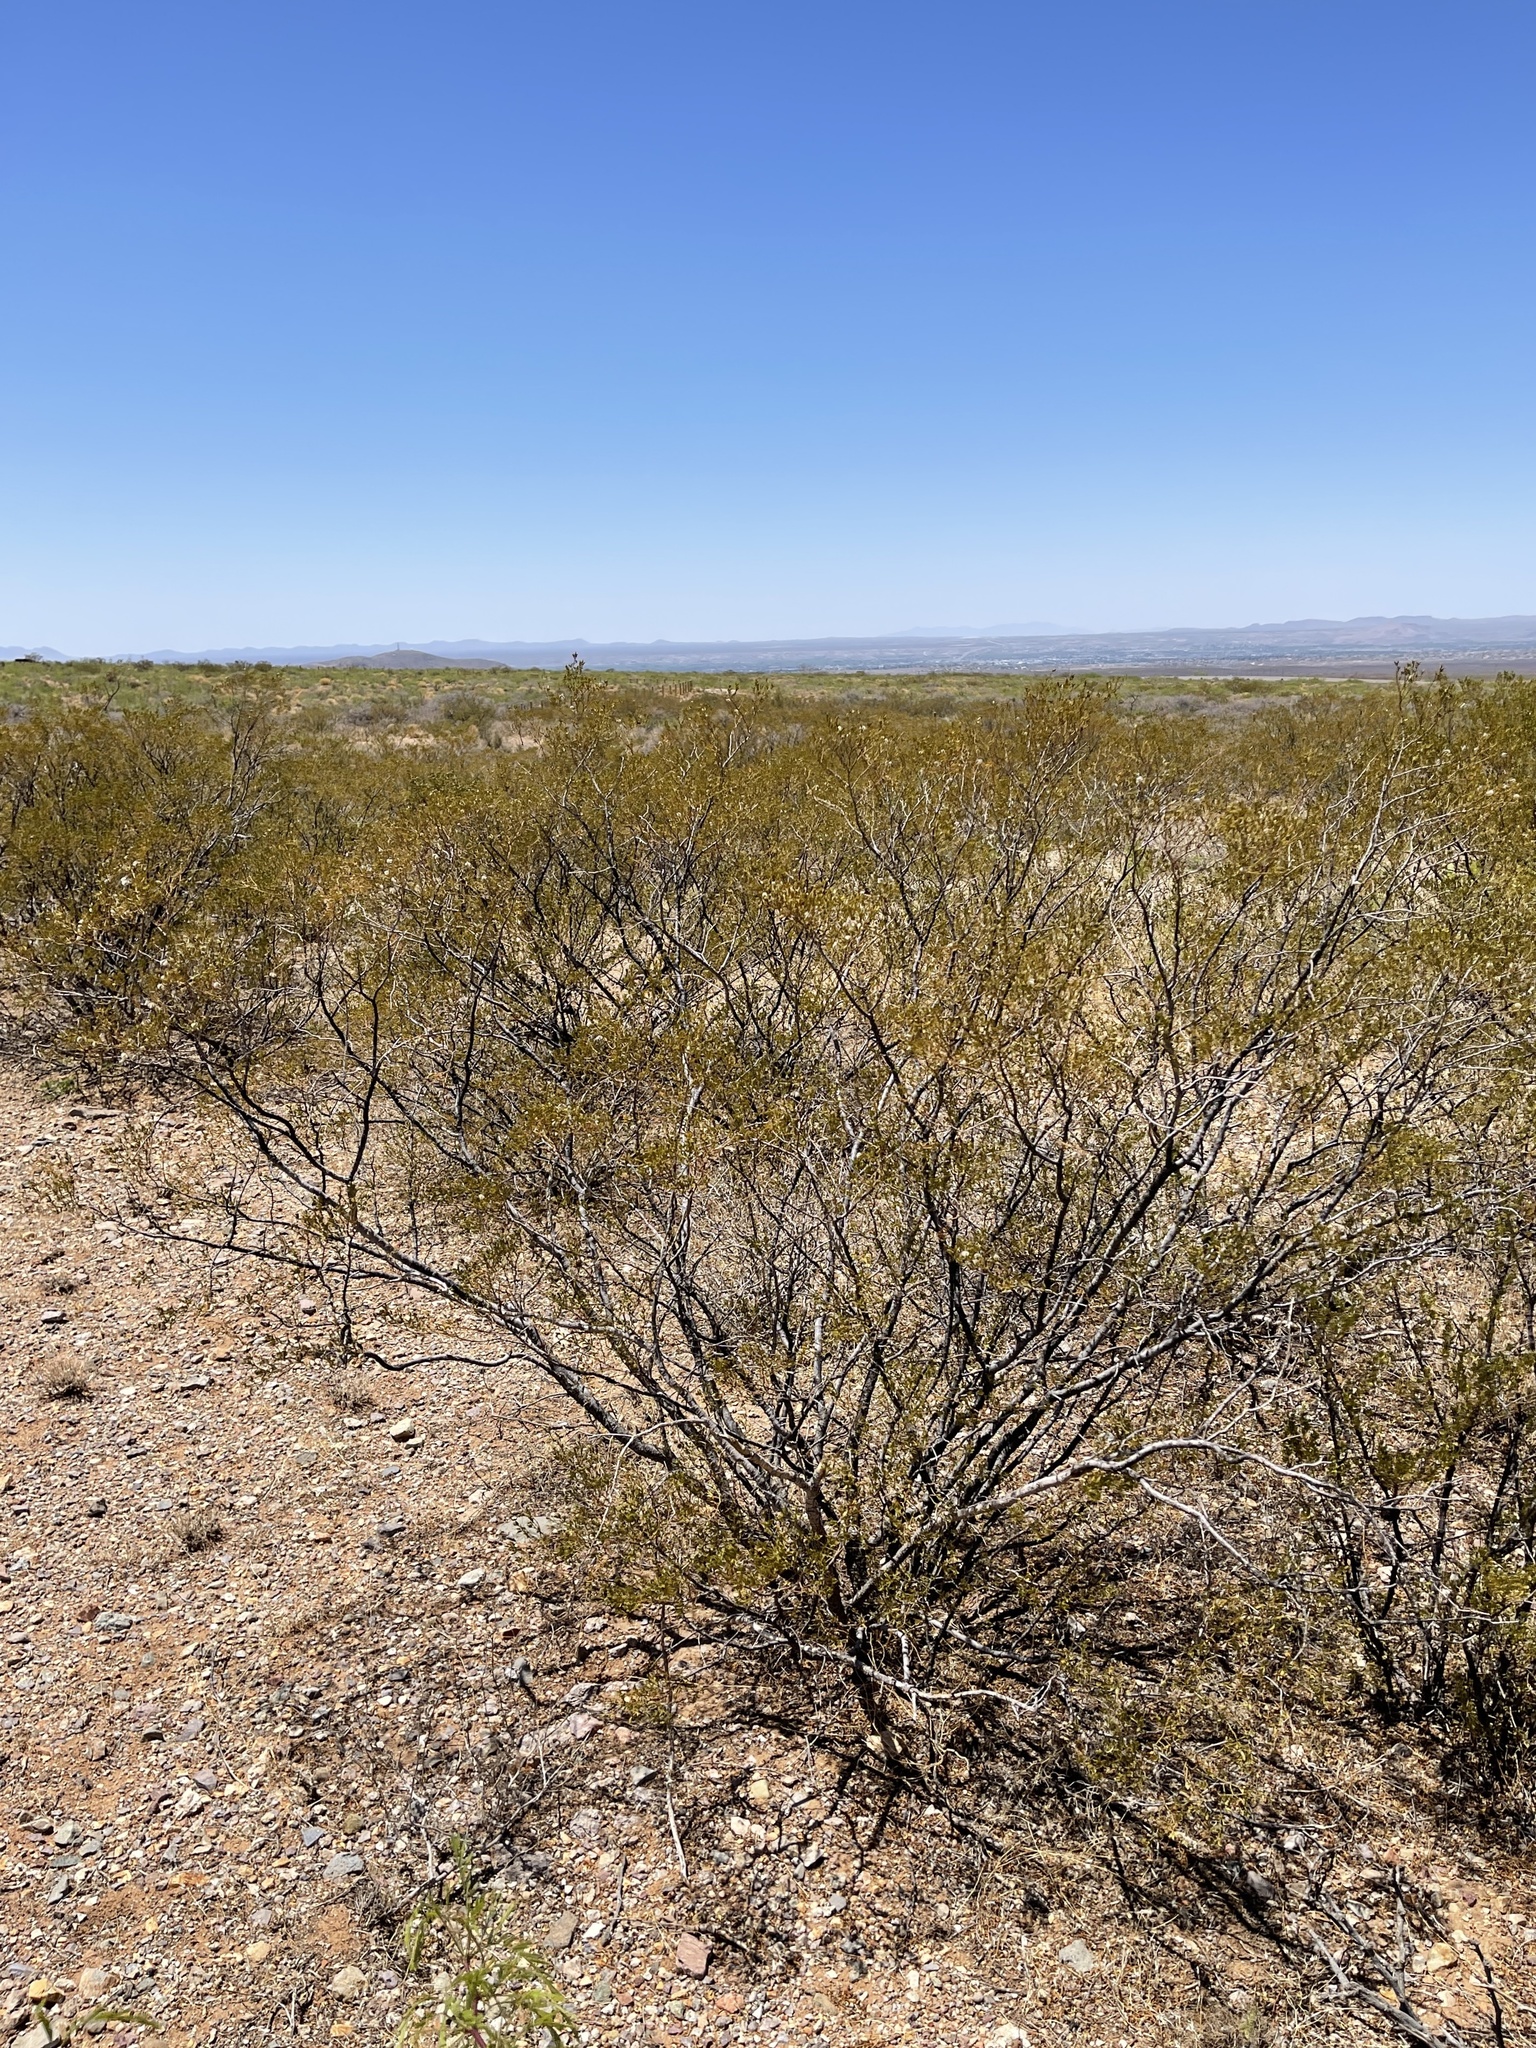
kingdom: Plantae
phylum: Tracheophyta
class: Magnoliopsida
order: Zygophyllales
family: Zygophyllaceae
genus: Larrea
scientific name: Larrea tridentata
